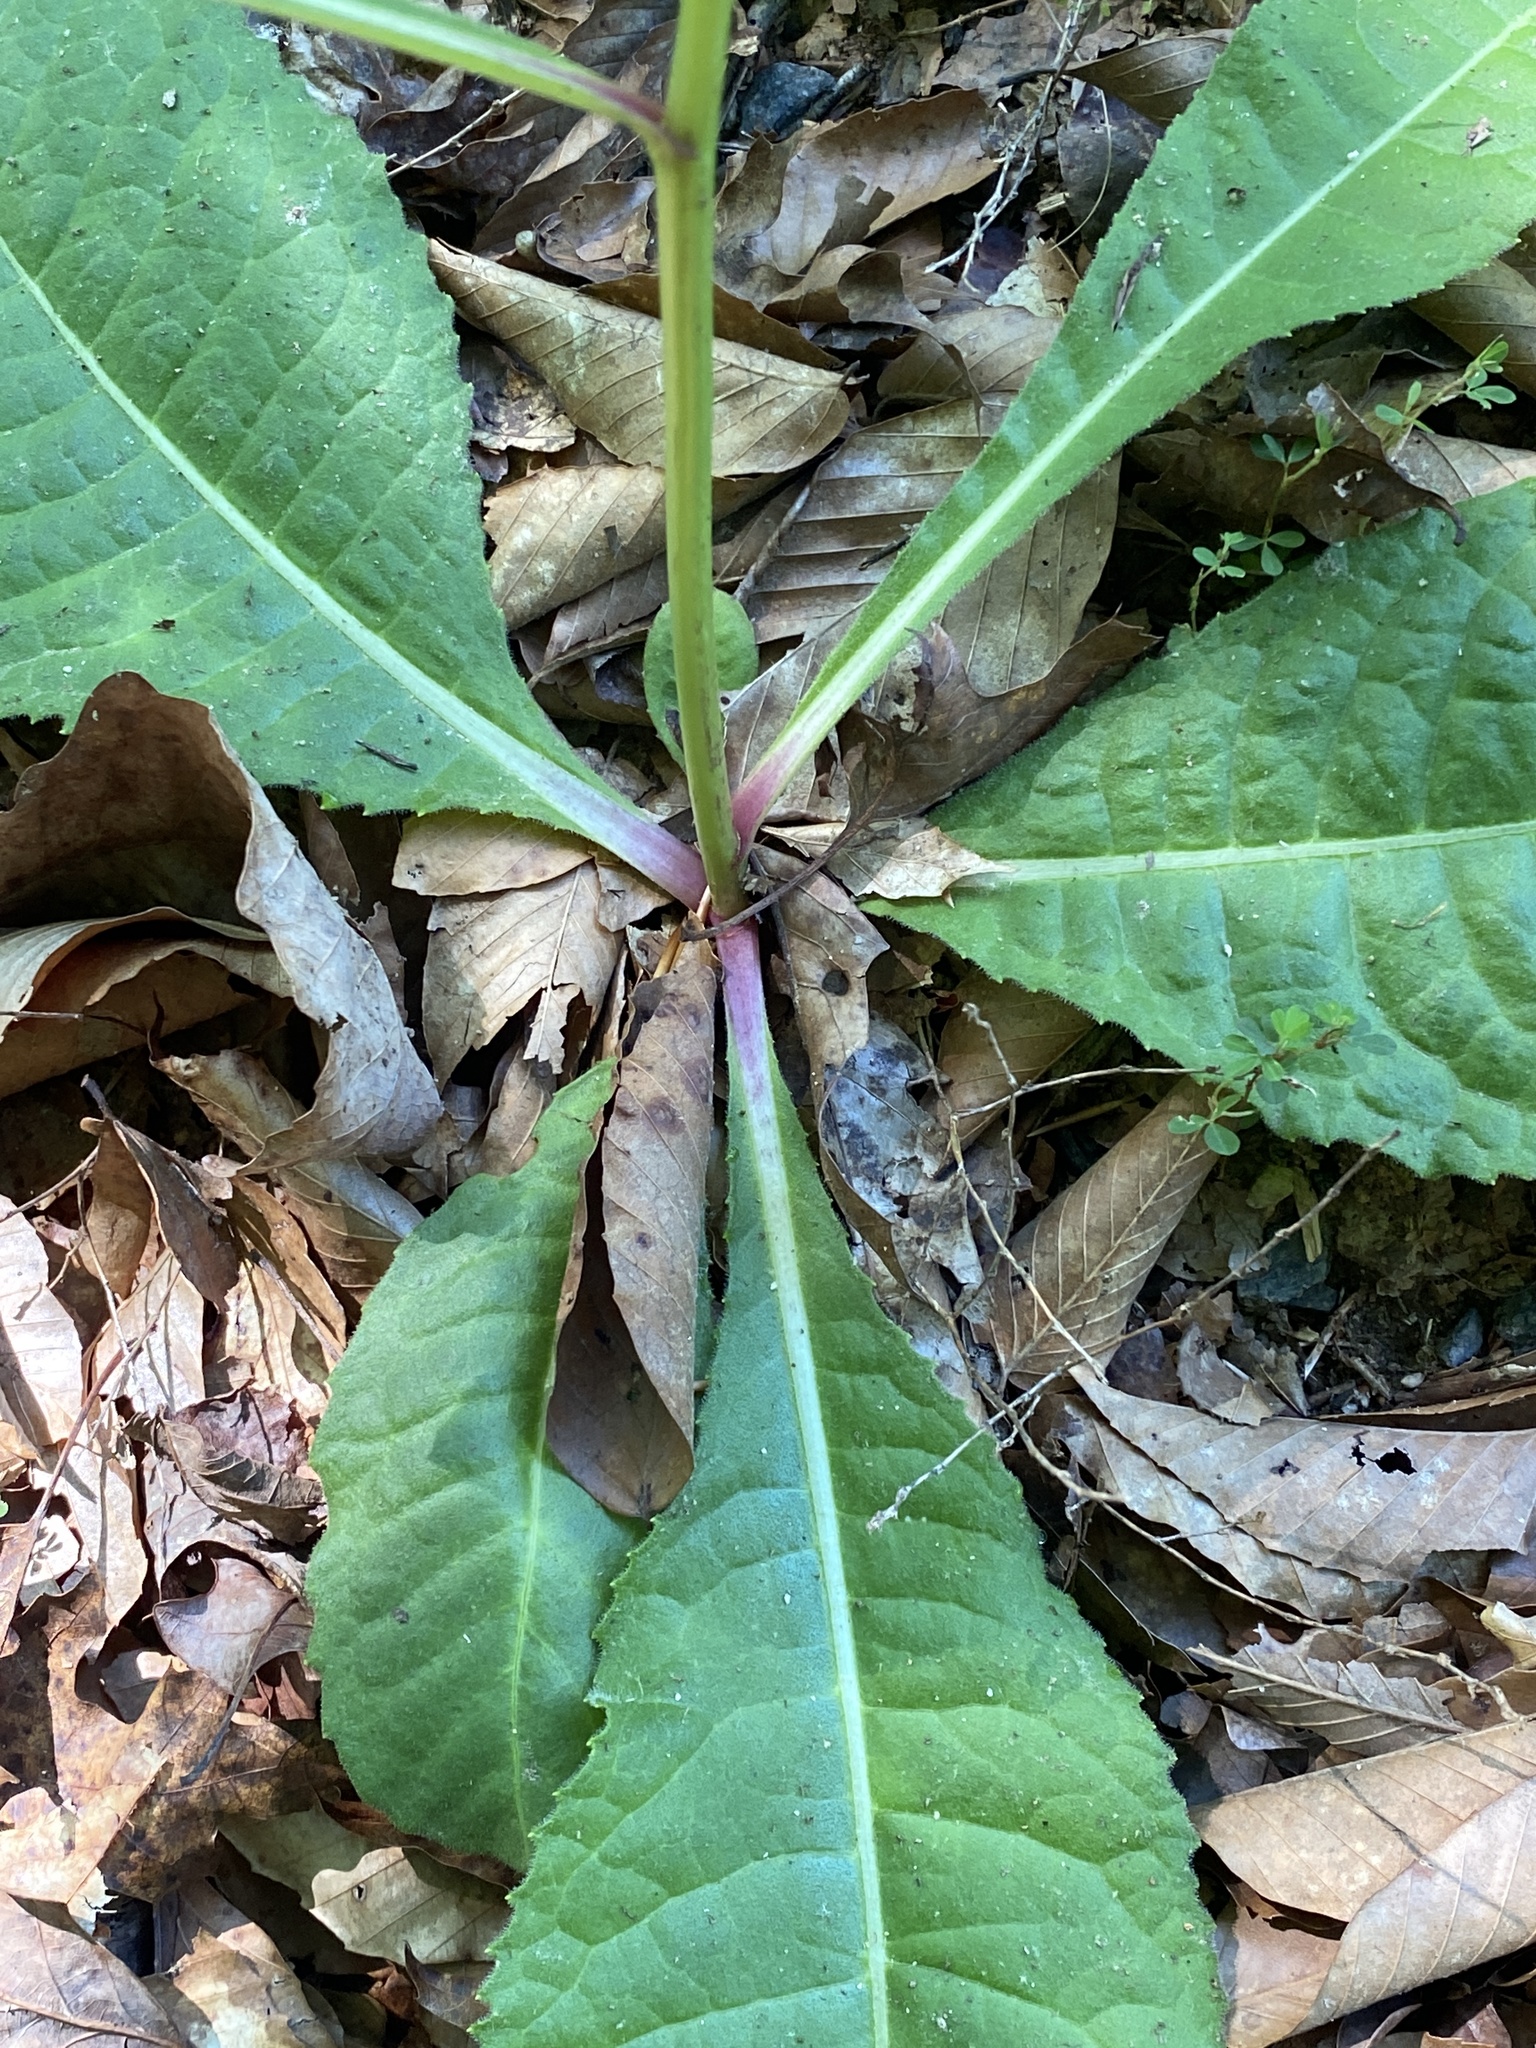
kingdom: Plantae
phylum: Tracheophyta
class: Magnoliopsida
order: Asterales
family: Asteraceae
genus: Vernonia
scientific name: Vernonia acaulis
